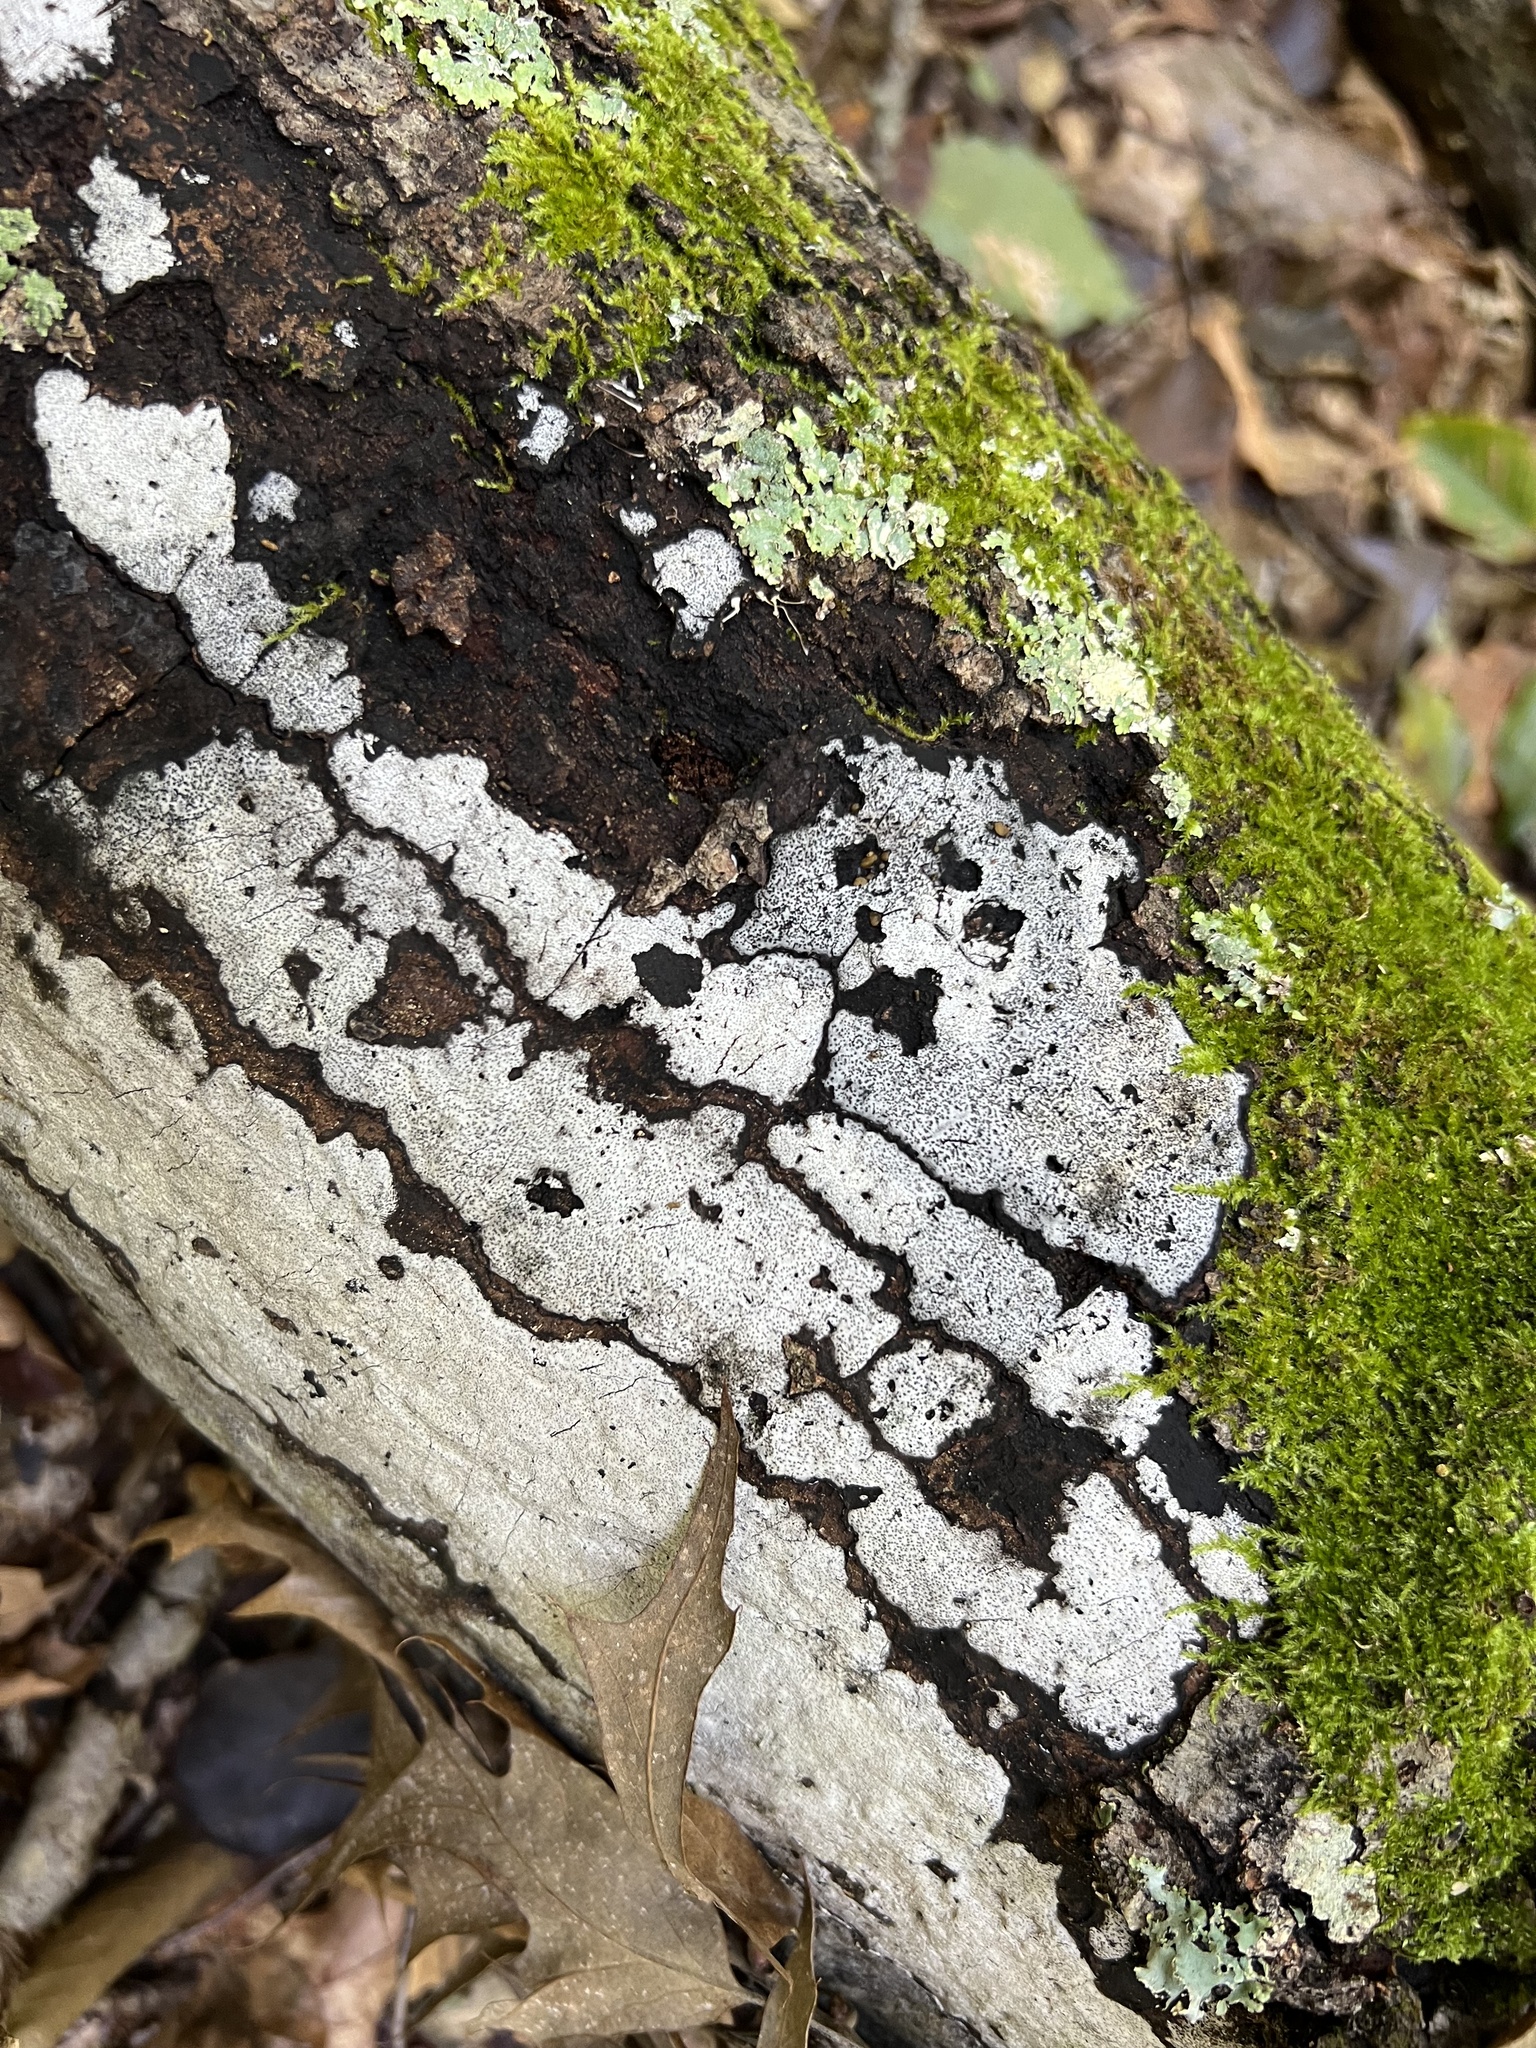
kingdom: Fungi
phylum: Ascomycota
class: Sordariomycetes
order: Xylariales
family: Graphostromataceae
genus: Biscogniauxia
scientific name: Biscogniauxia atropunctata
